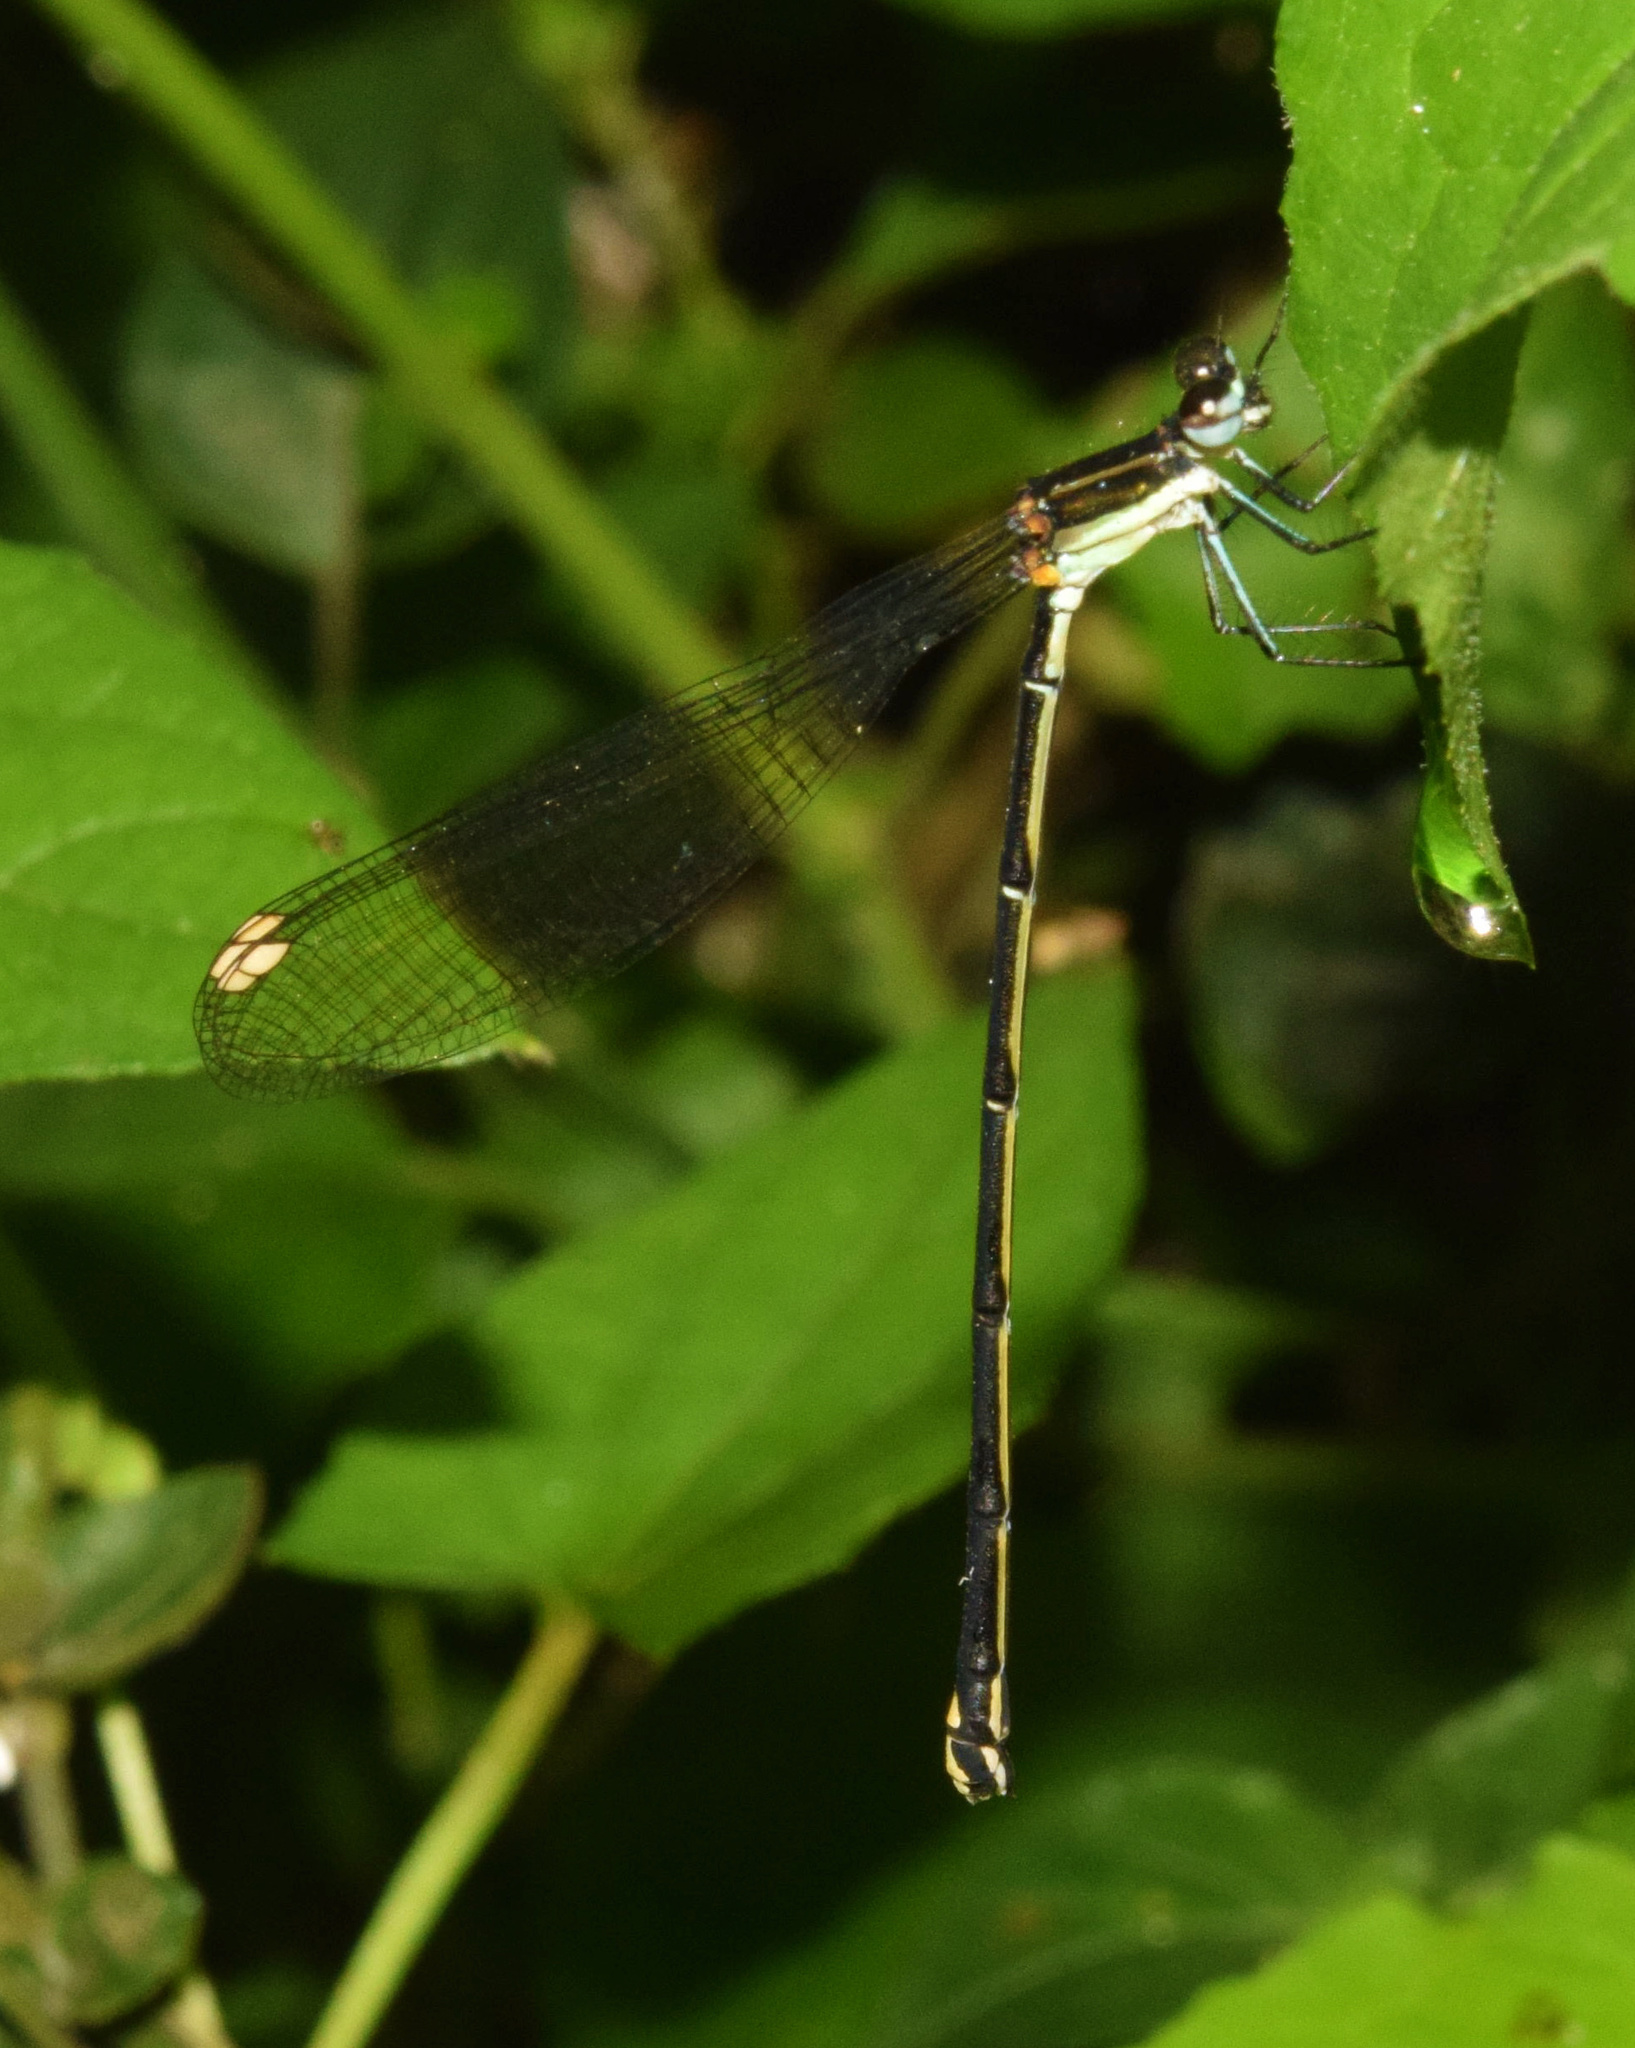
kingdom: Animalia
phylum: Arthropoda
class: Insecta
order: Odonata
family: Platycnemididae
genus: Allocnemis
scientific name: Allocnemis leucosticta
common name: Goldtail
